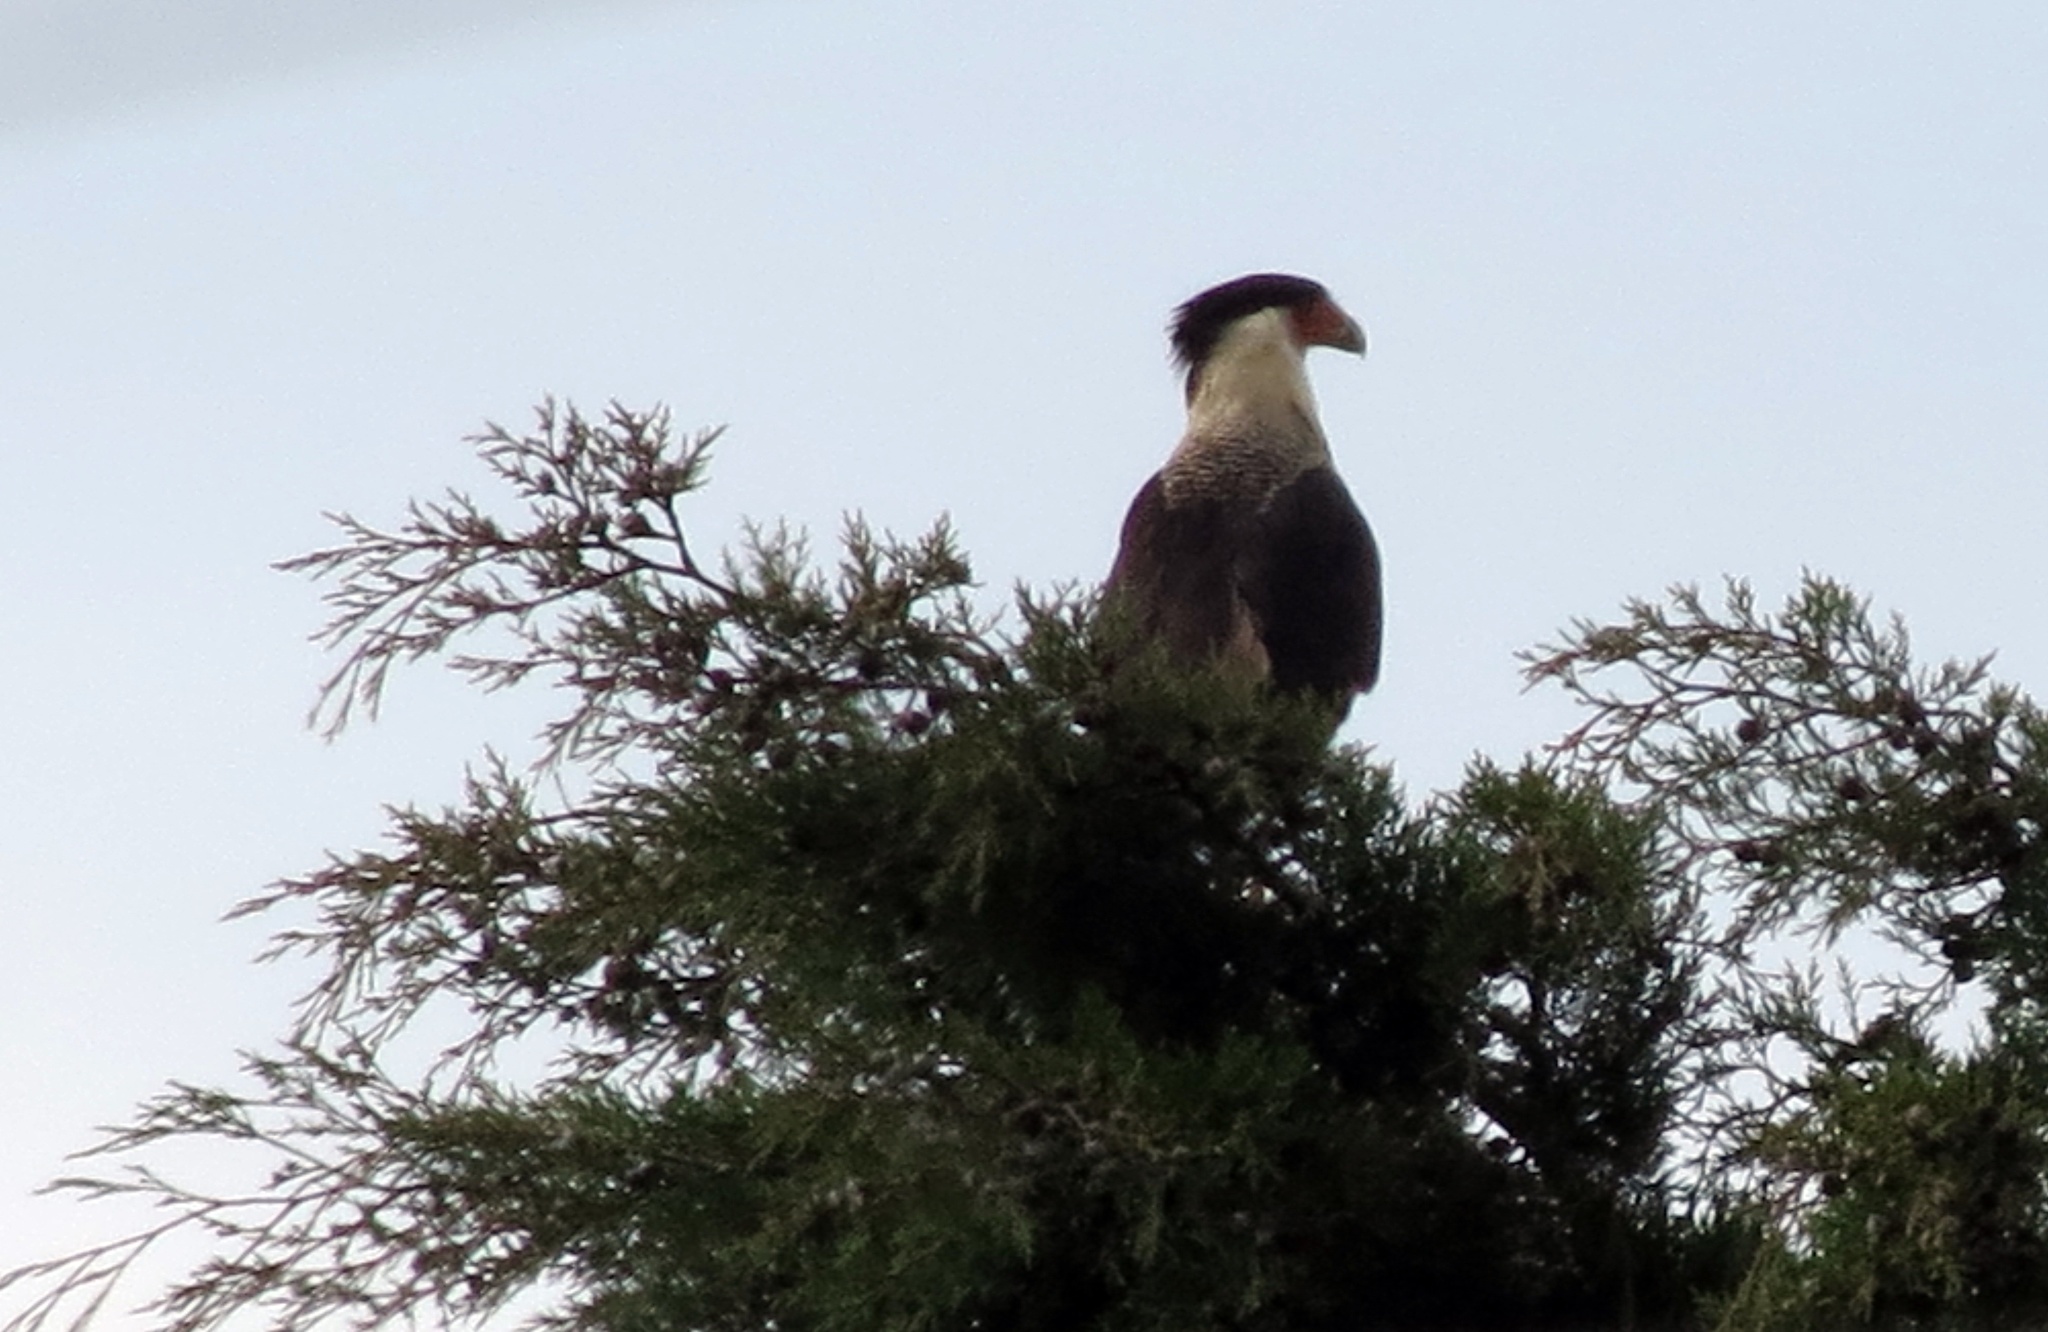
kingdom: Animalia
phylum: Chordata
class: Aves
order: Falconiformes
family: Falconidae
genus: Caracara
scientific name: Caracara plancus
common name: Southern caracara
